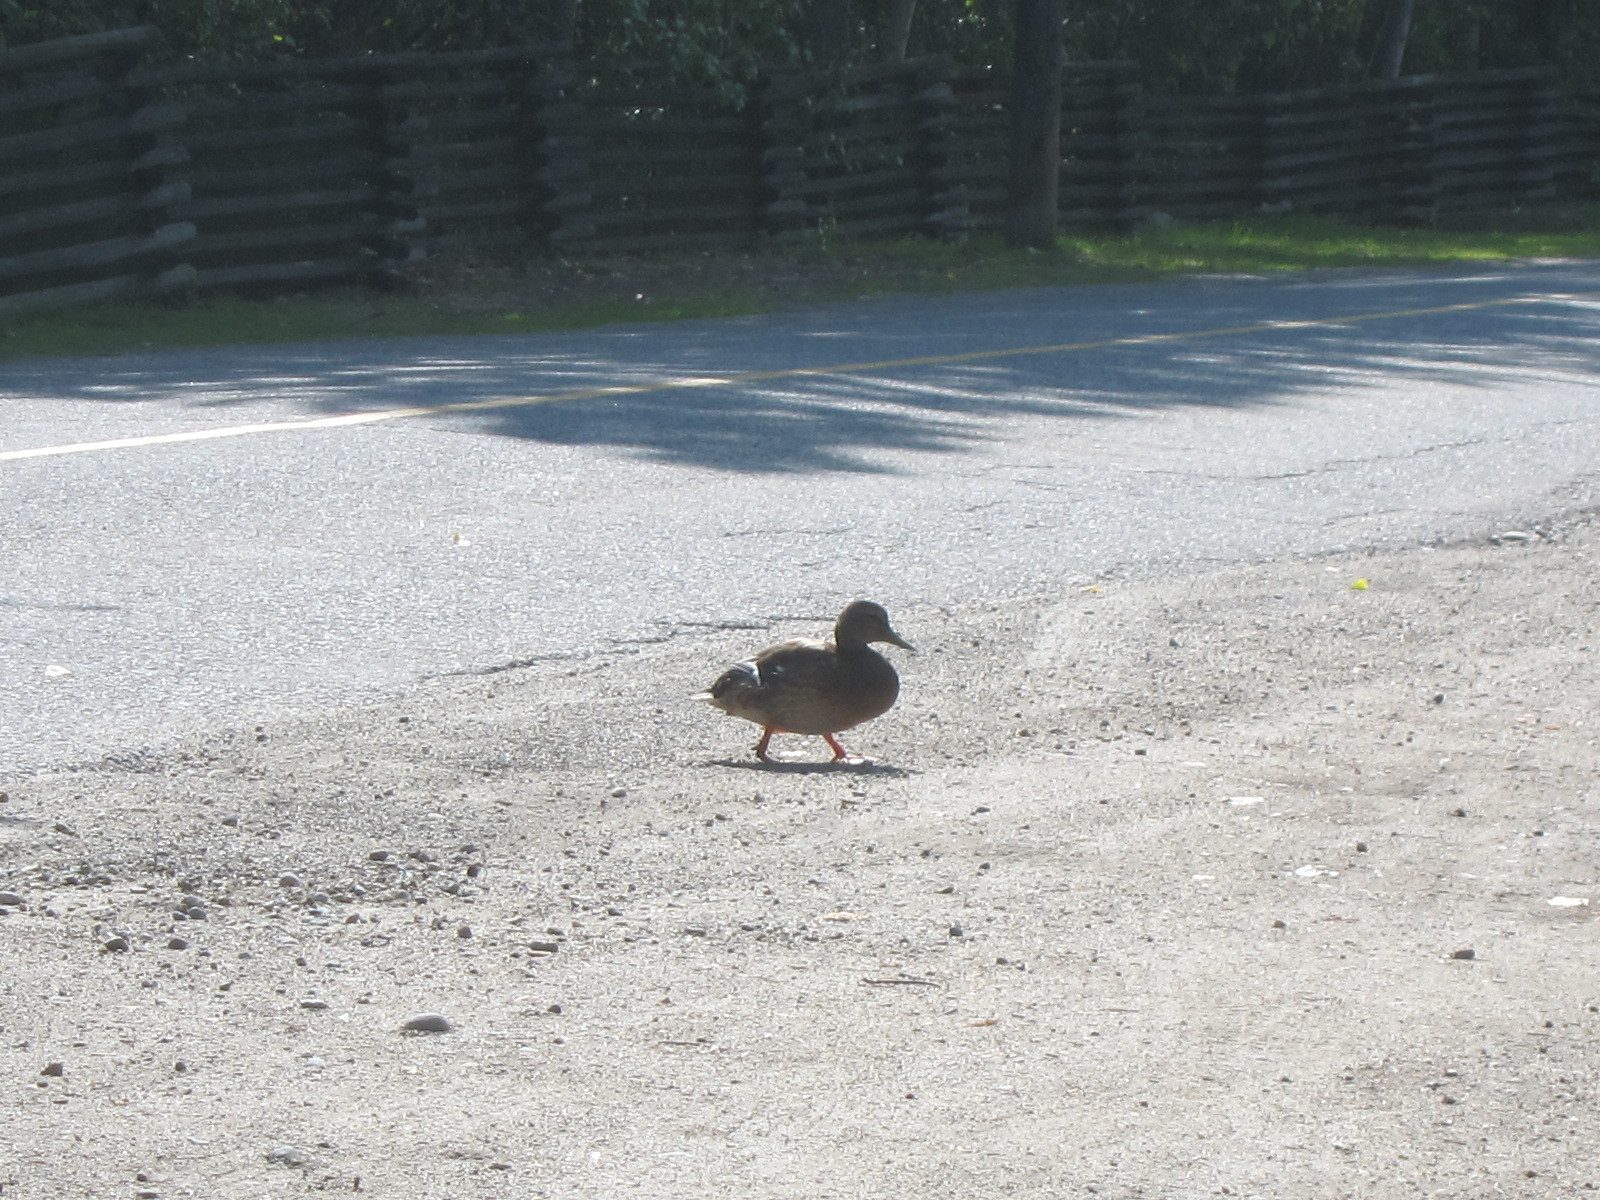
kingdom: Animalia
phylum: Chordata
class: Aves
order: Anseriformes
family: Anatidae
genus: Anas
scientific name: Anas platyrhynchos
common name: Mallard
